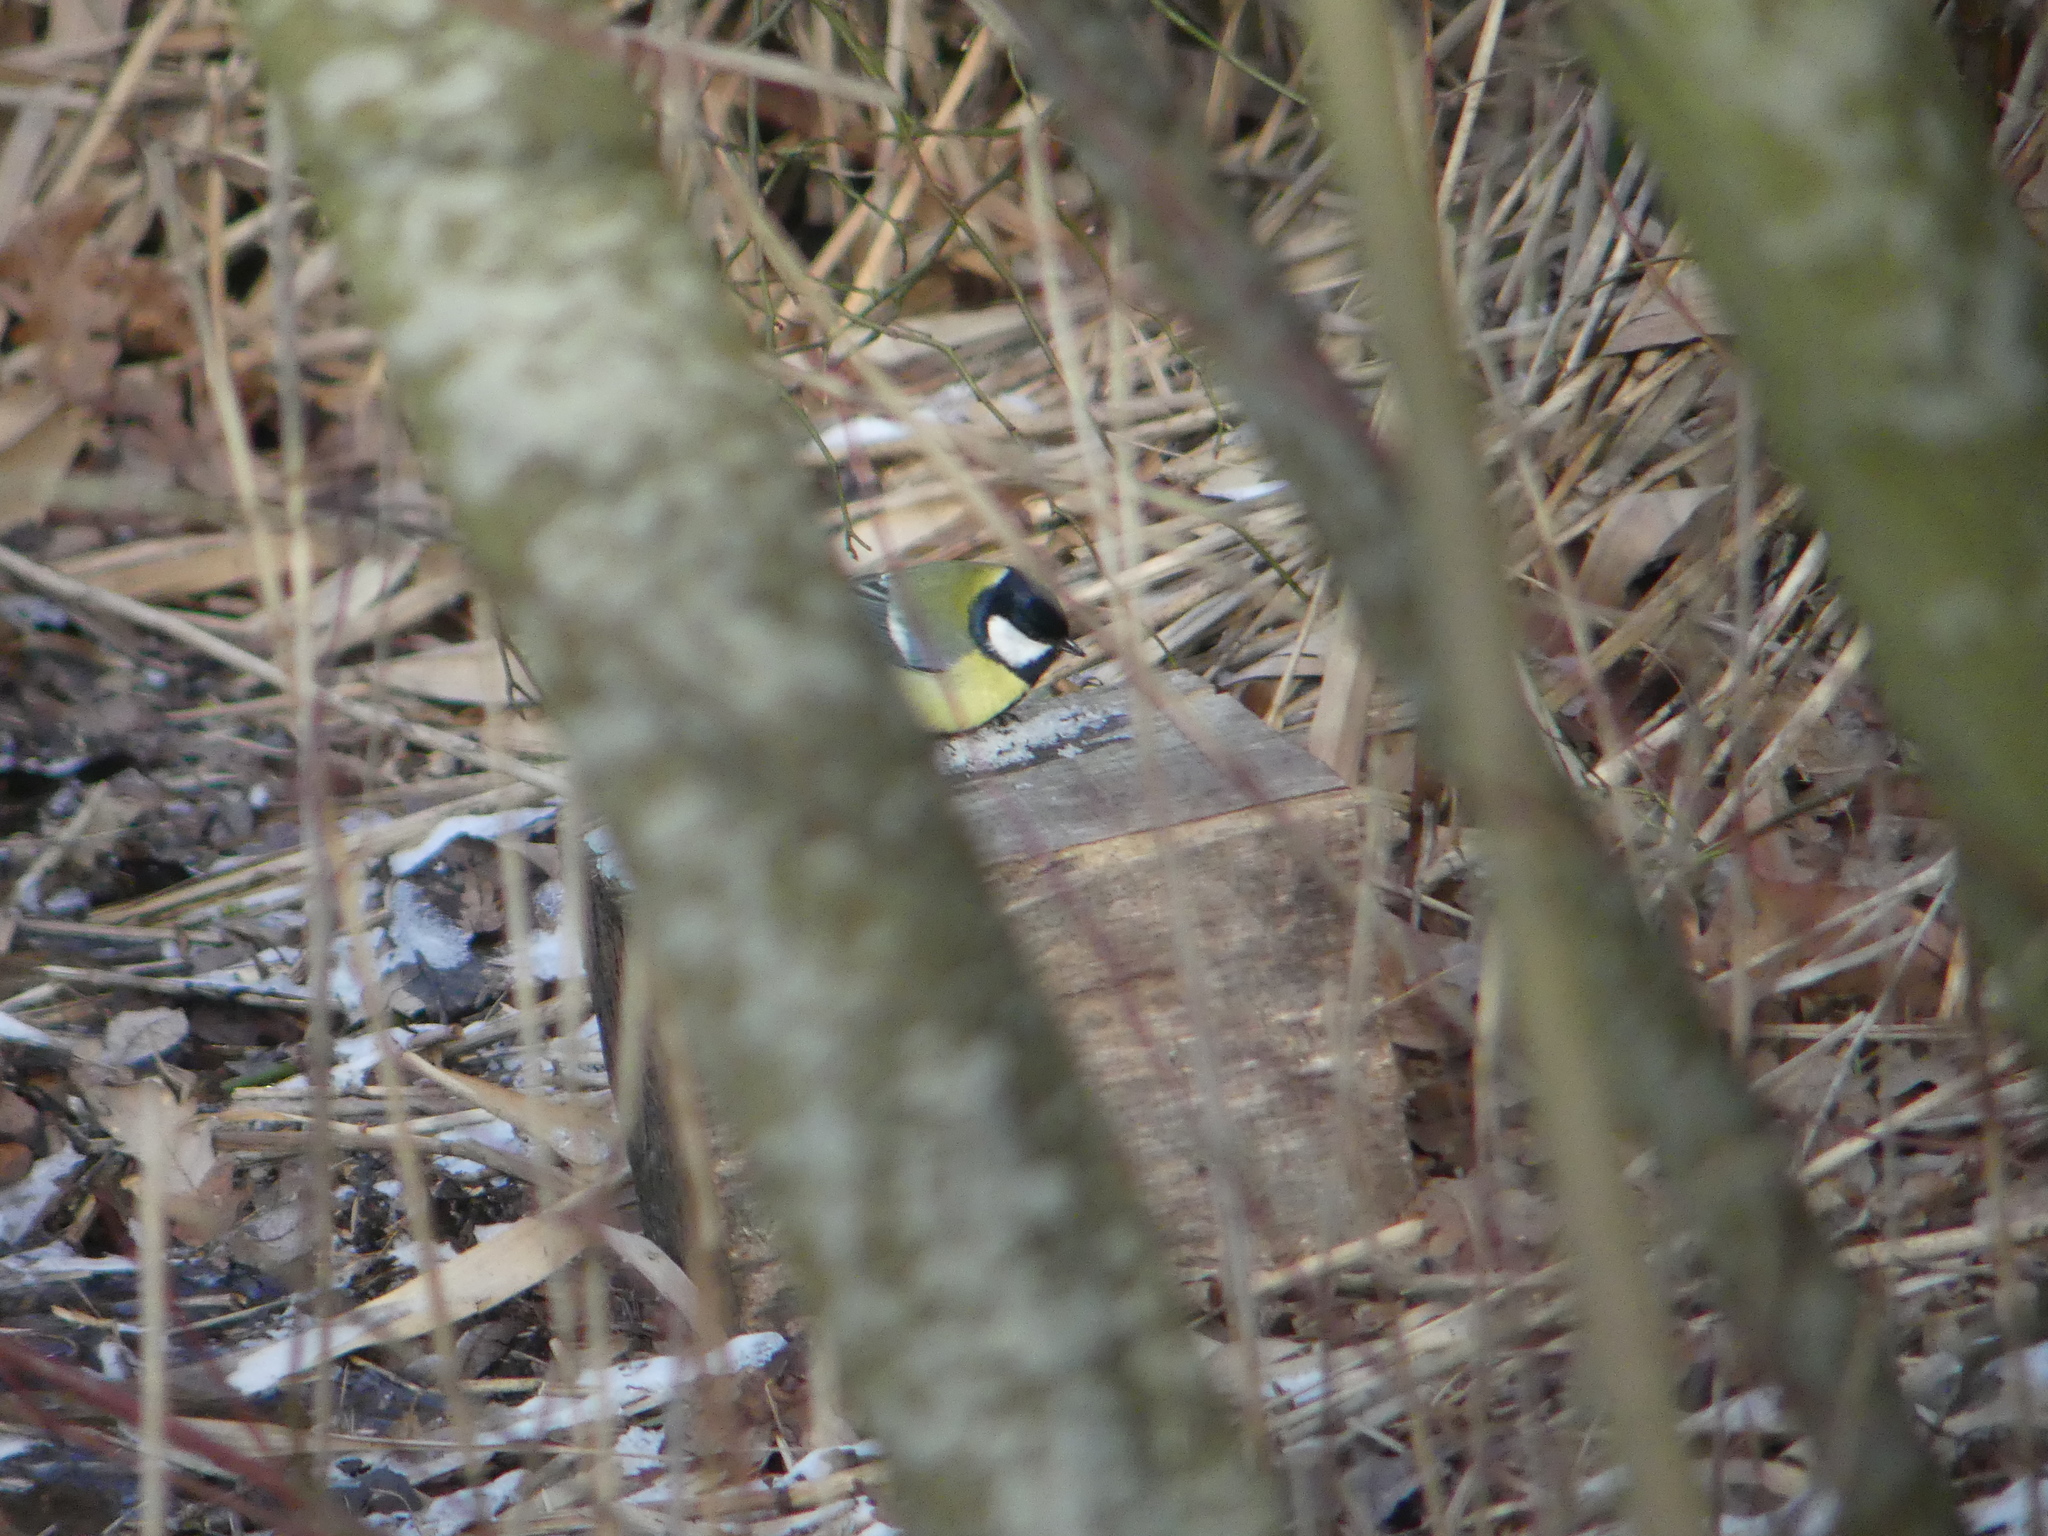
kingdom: Animalia
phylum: Chordata
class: Aves
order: Passeriformes
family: Paridae
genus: Parus
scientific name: Parus major
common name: Great tit
